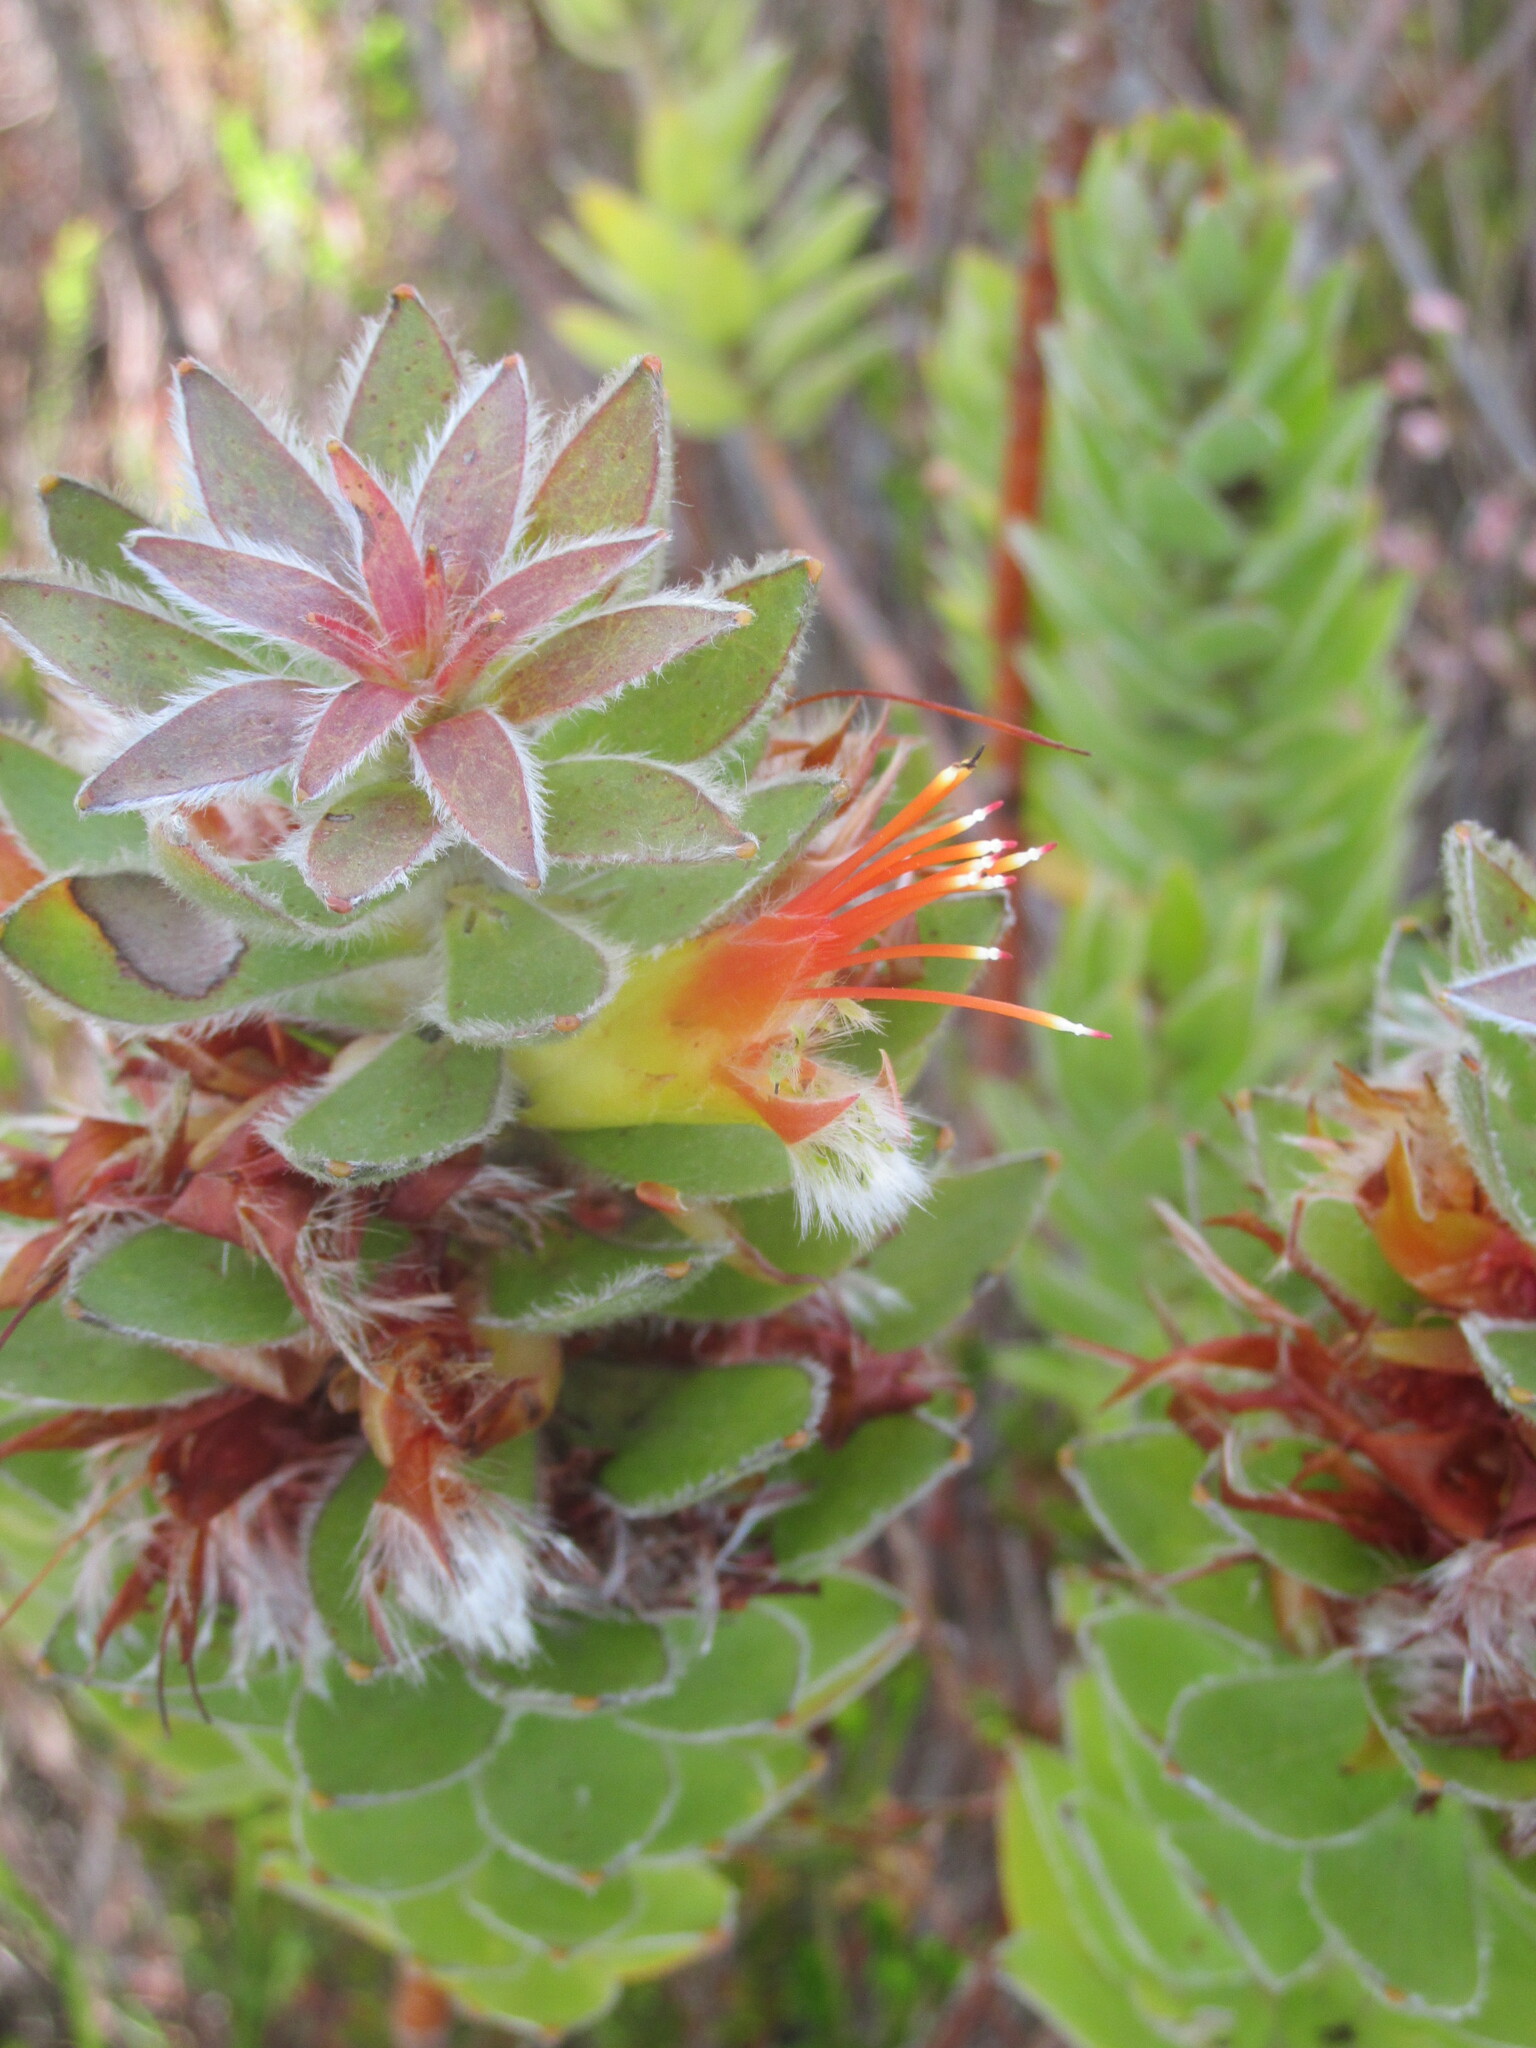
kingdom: Plantae
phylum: Tracheophyta
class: Magnoliopsida
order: Proteales
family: Proteaceae
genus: Mimetes
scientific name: Mimetes hirtus
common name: Marsh pagoda
